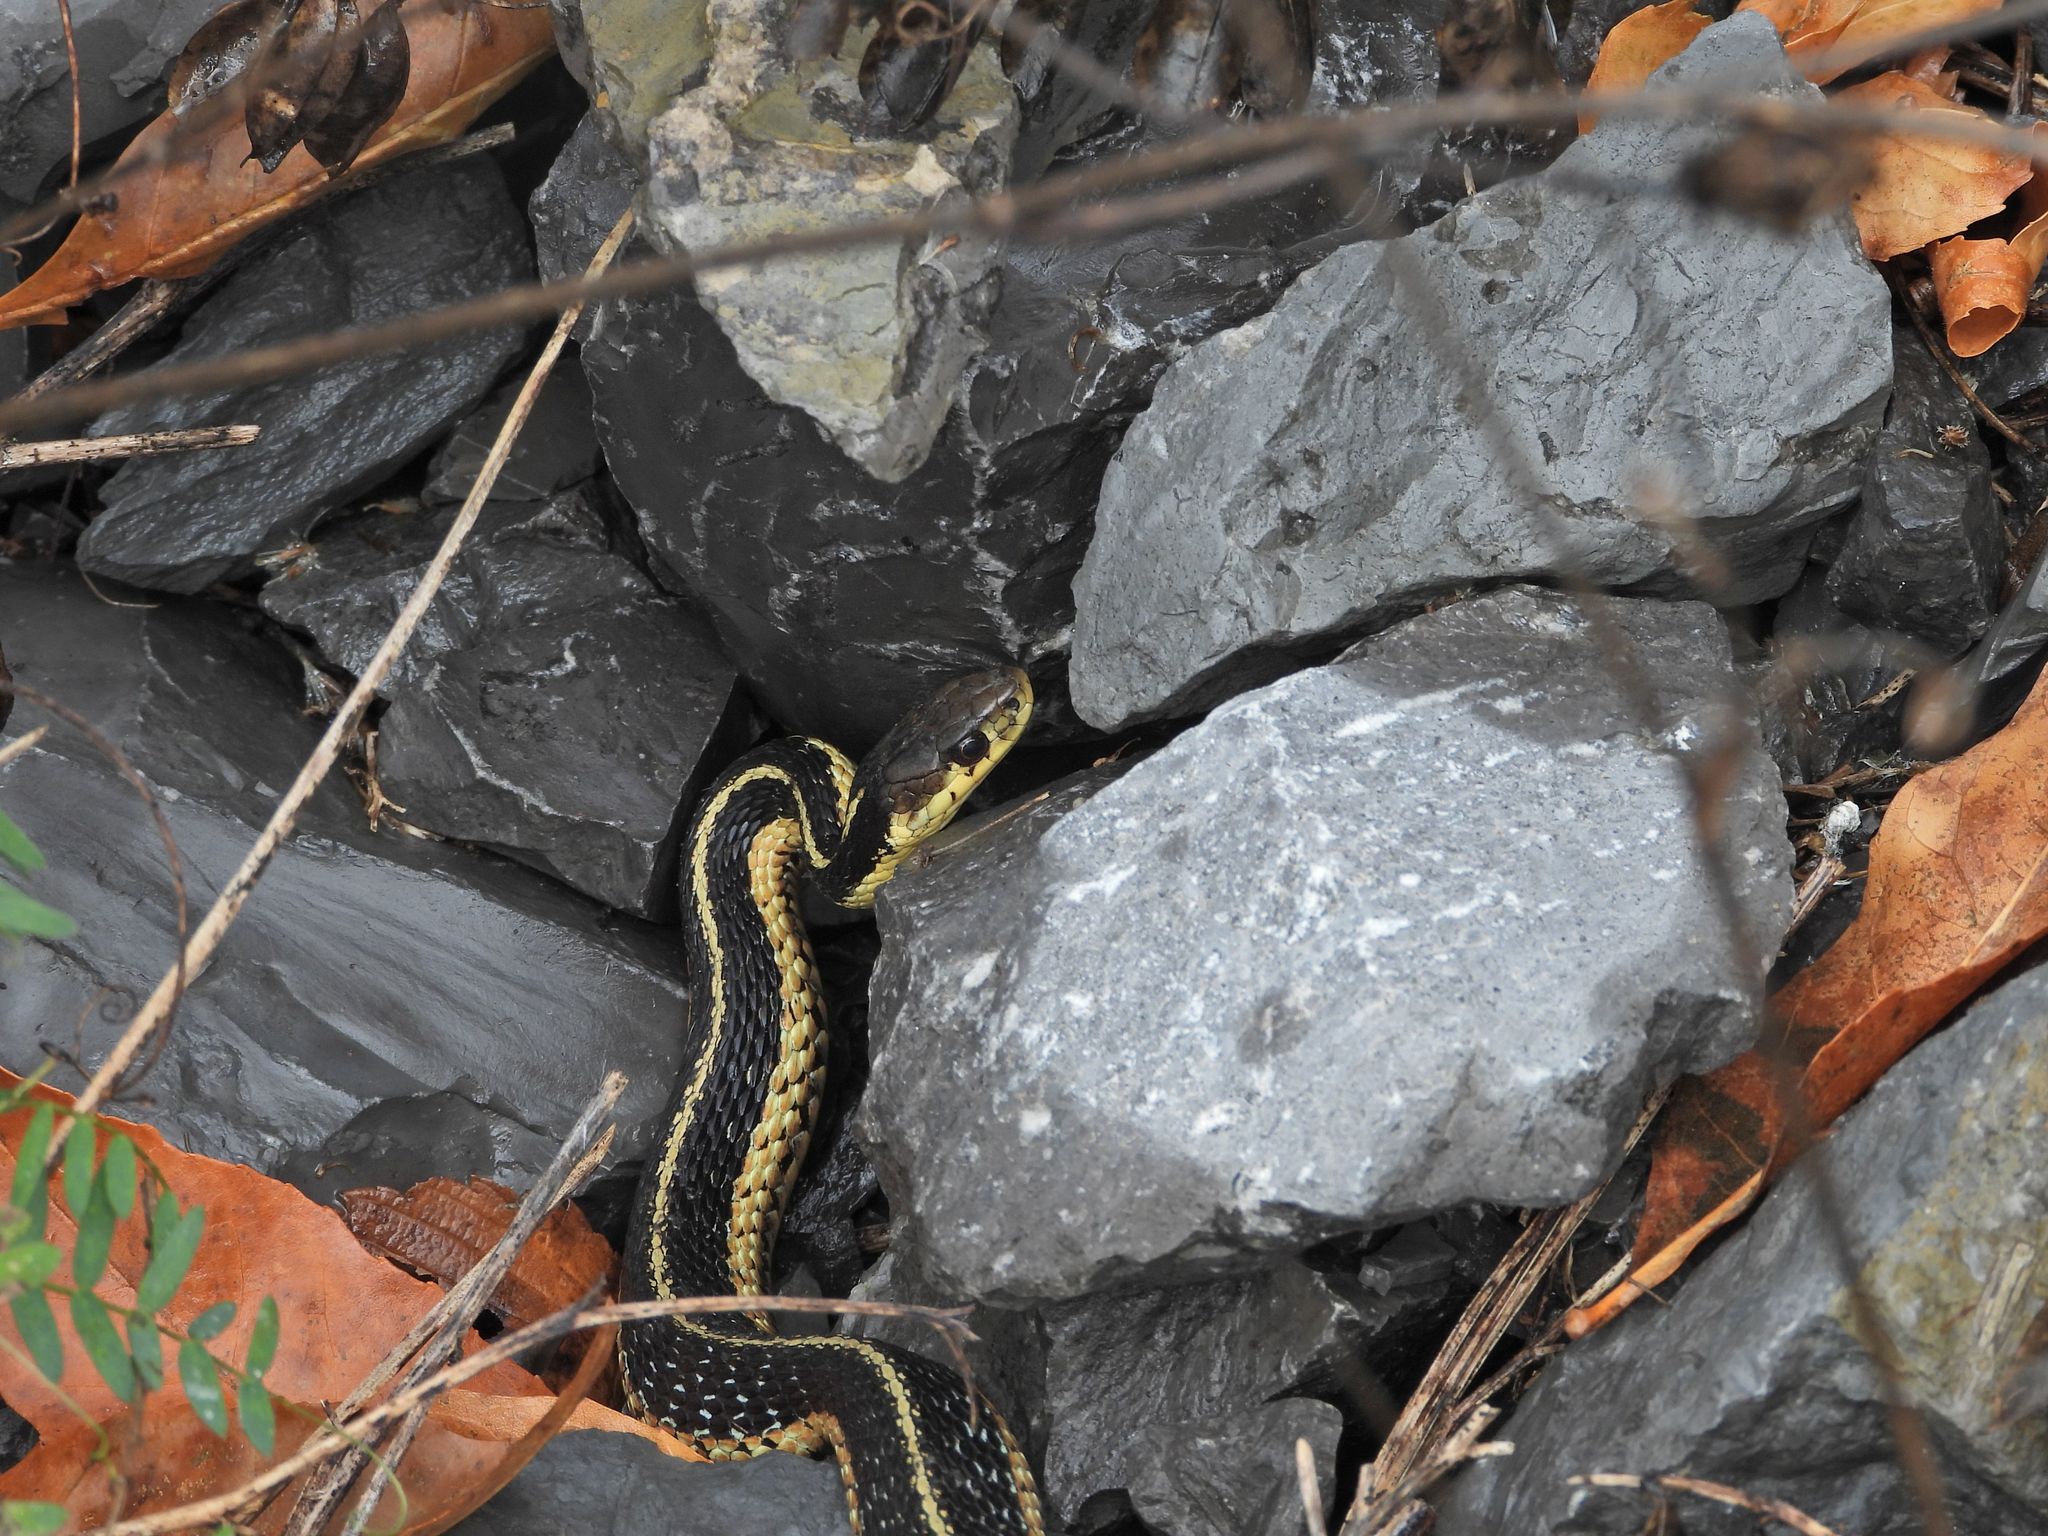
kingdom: Animalia
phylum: Chordata
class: Squamata
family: Colubridae
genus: Thamnophis
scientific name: Thamnophis sirtalis
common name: Common garter snake
